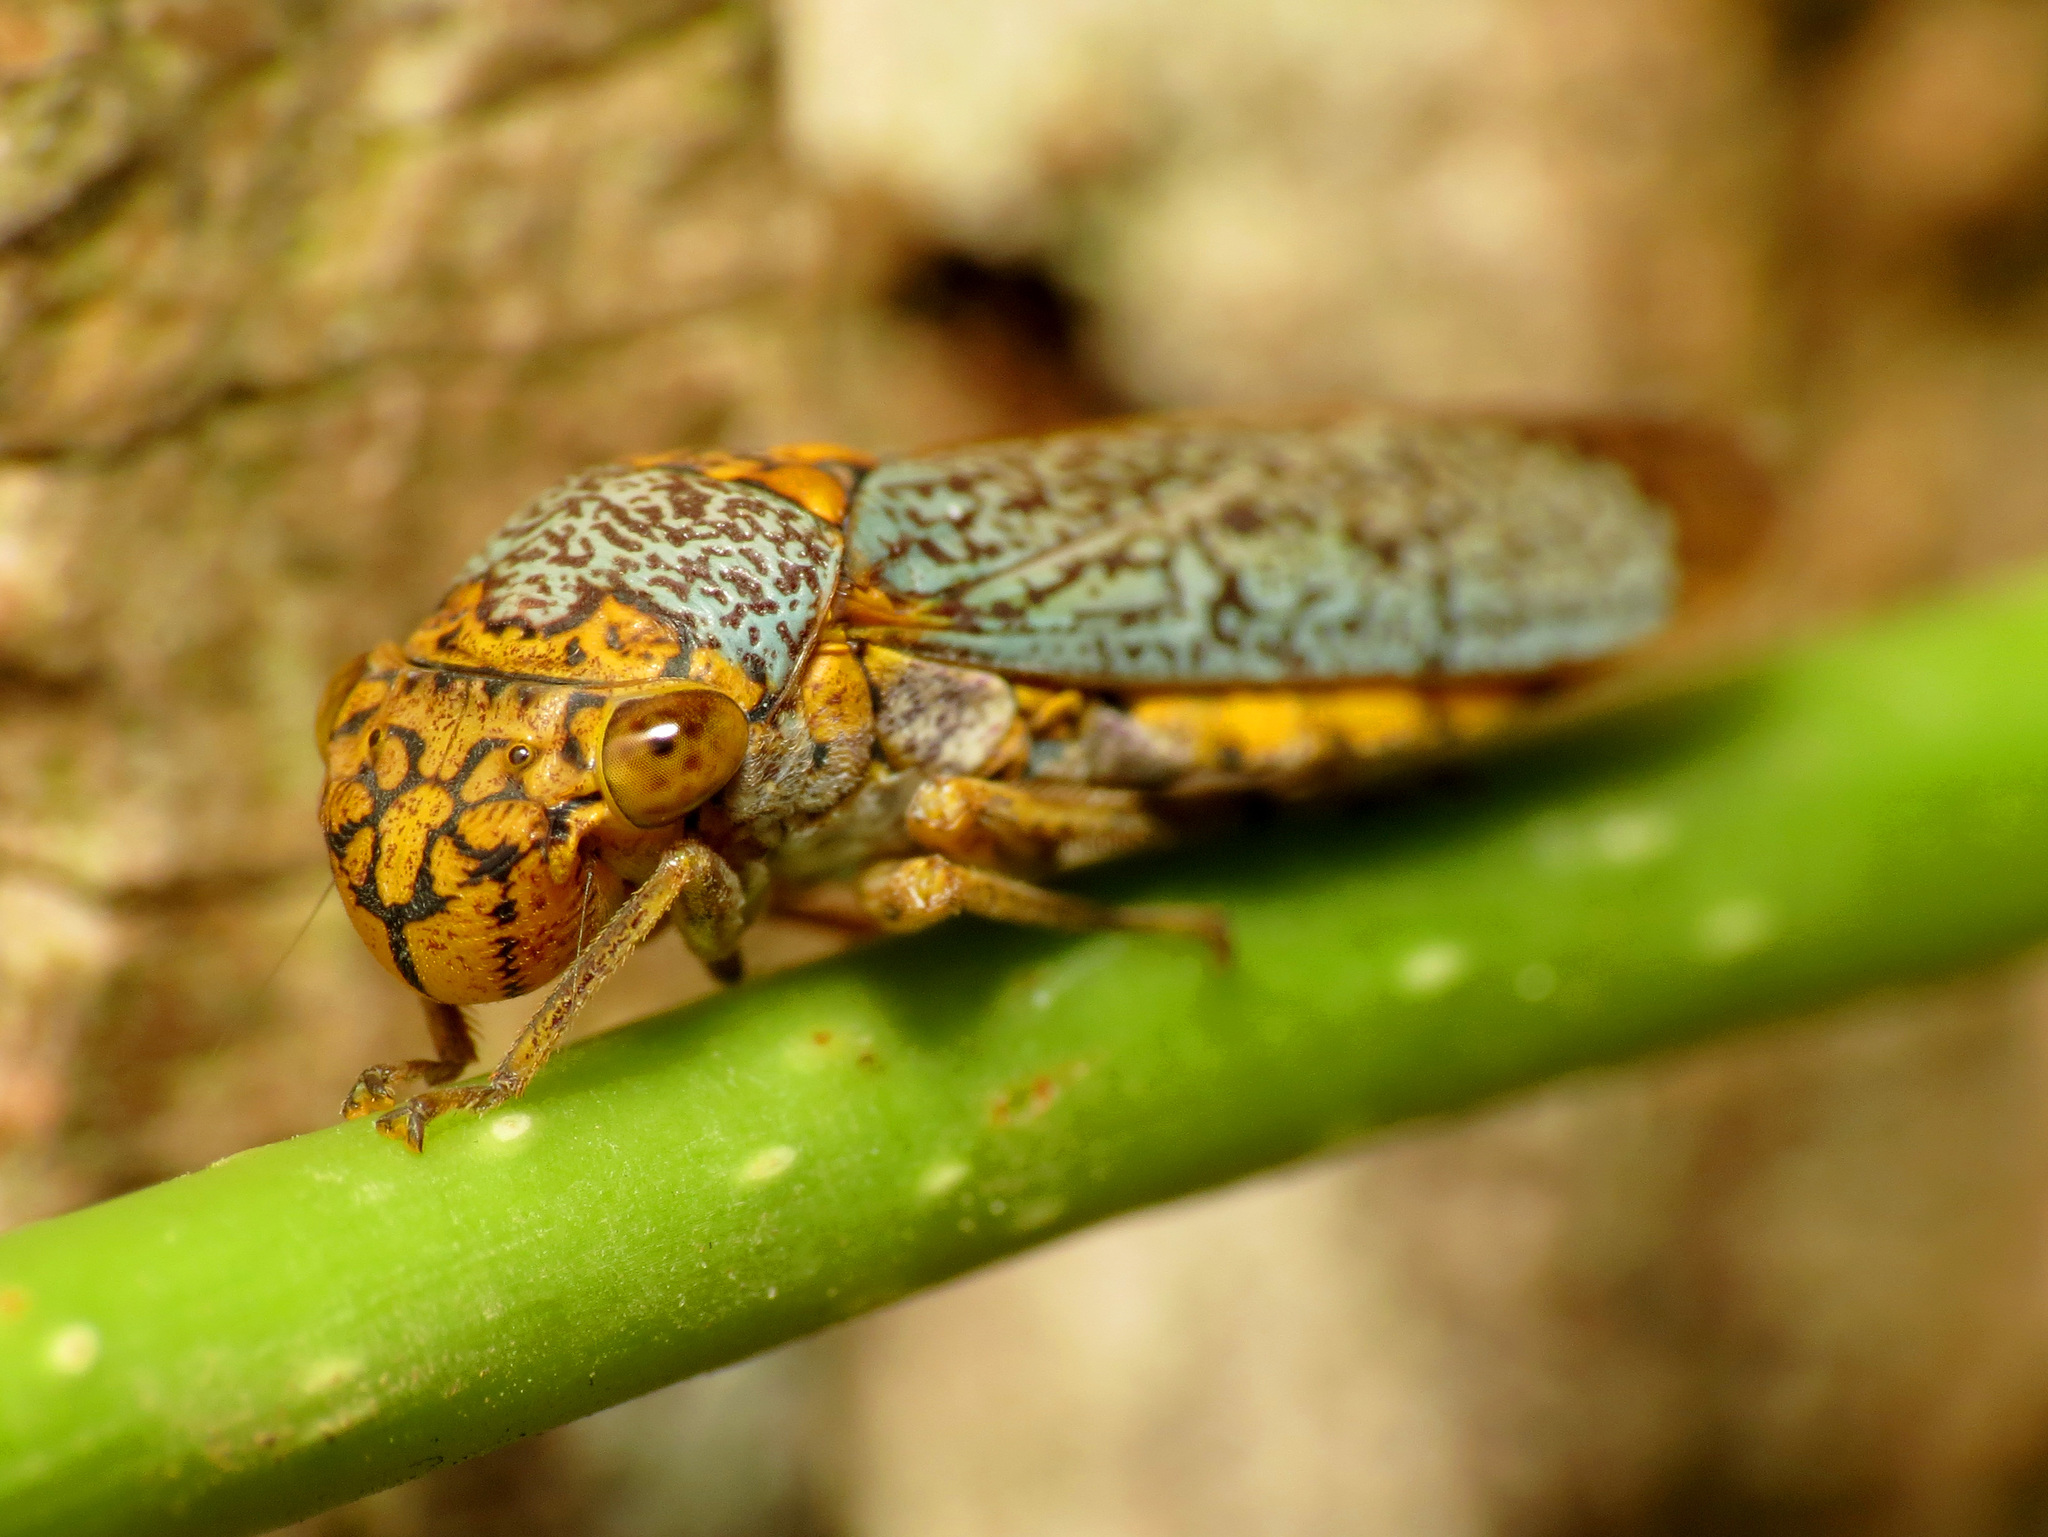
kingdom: Animalia
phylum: Arthropoda
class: Insecta
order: Hemiptera
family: Cicadellidae
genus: Oncometopia
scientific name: Oncometopia orbona
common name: Broad-headed sharpshooter
